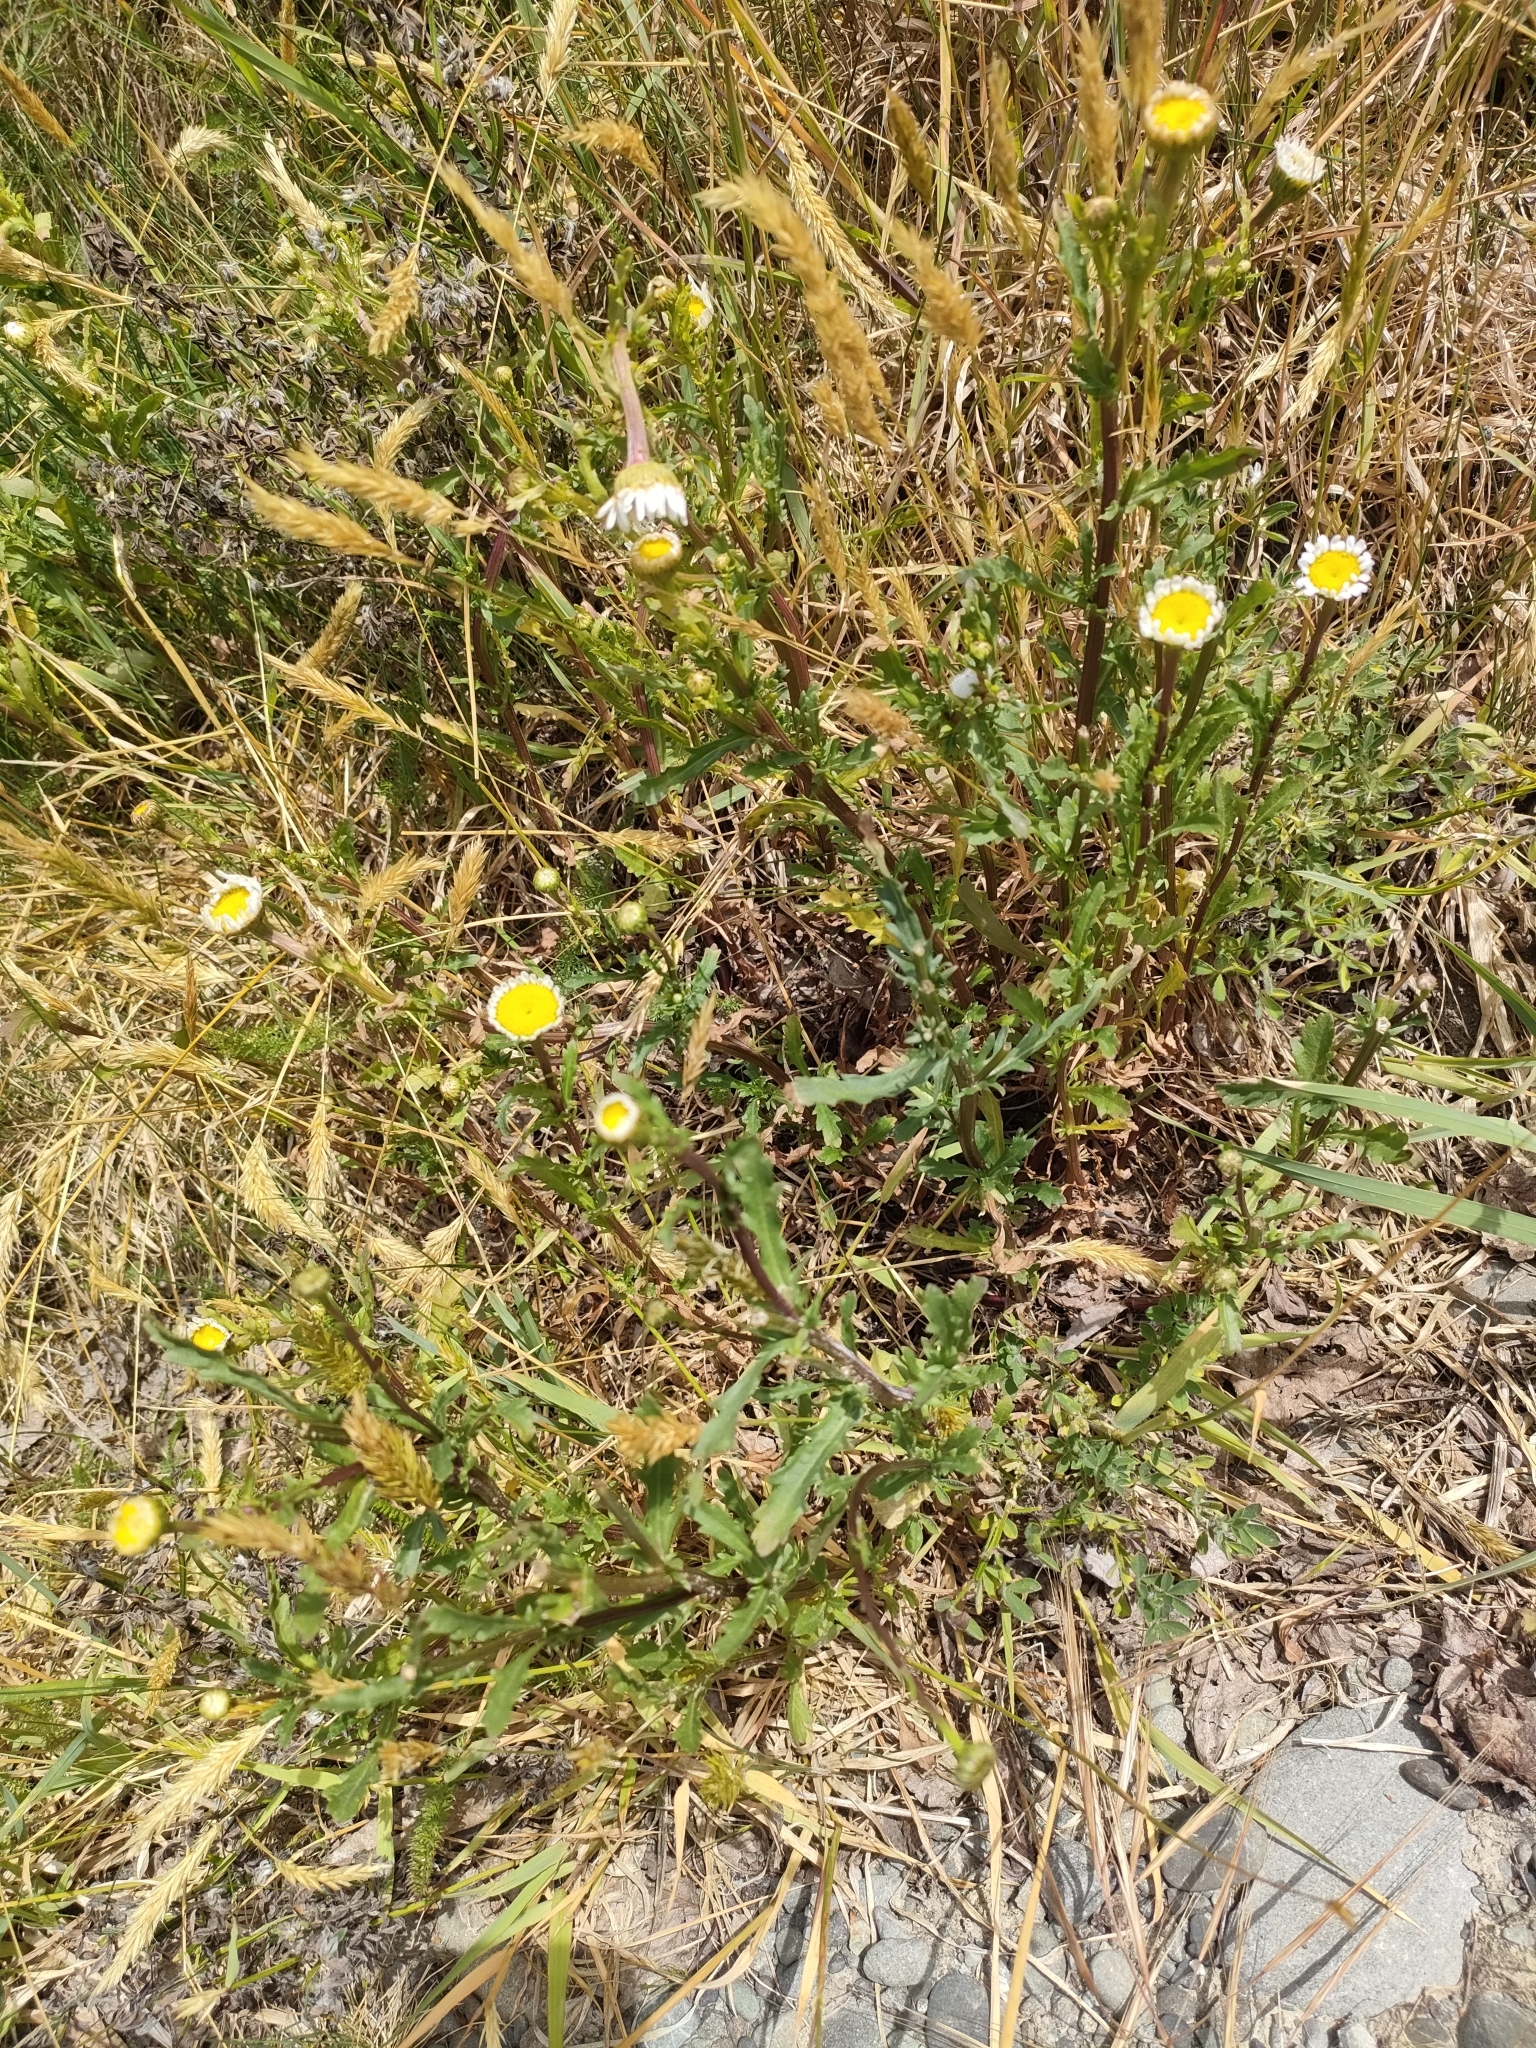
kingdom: Plantae
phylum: Tracheophyta
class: Magnoliopsida
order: Asterales
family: Asteraceae
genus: Leucanthemum
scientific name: Leucanthemum vulgare
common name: Oxeye daisy
